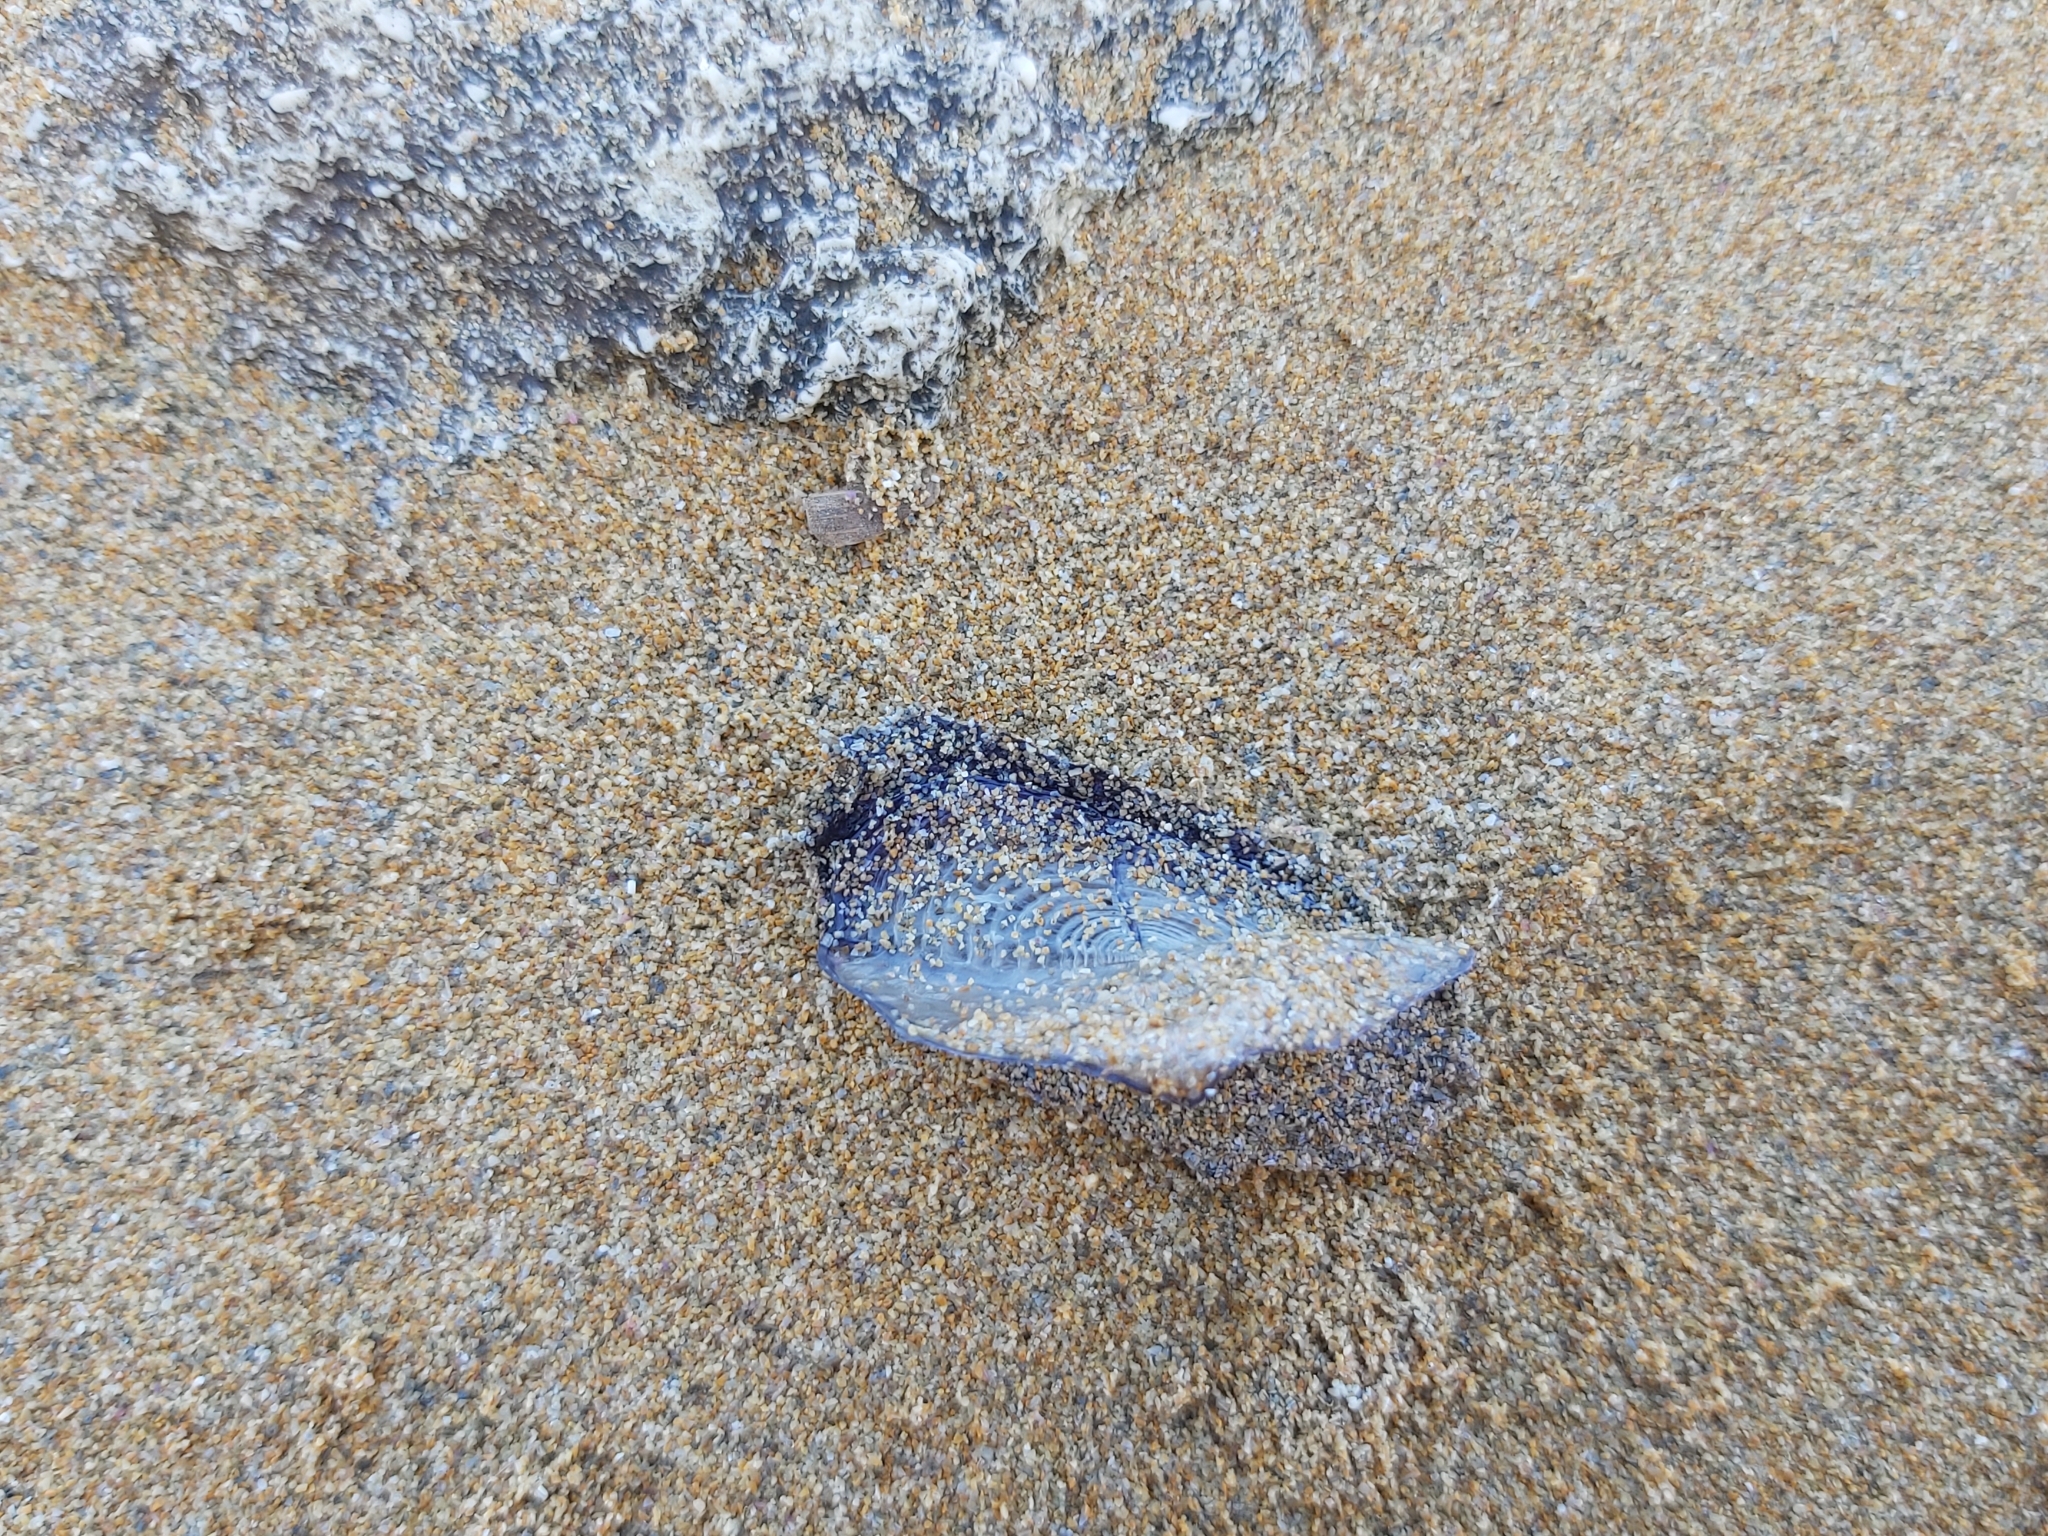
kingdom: Animalia
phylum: Cnidaria
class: Hydrozoa
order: Anthoathecata
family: Porpitidae
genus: Velella
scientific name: Velella velella
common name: By-the-wind-sailor
